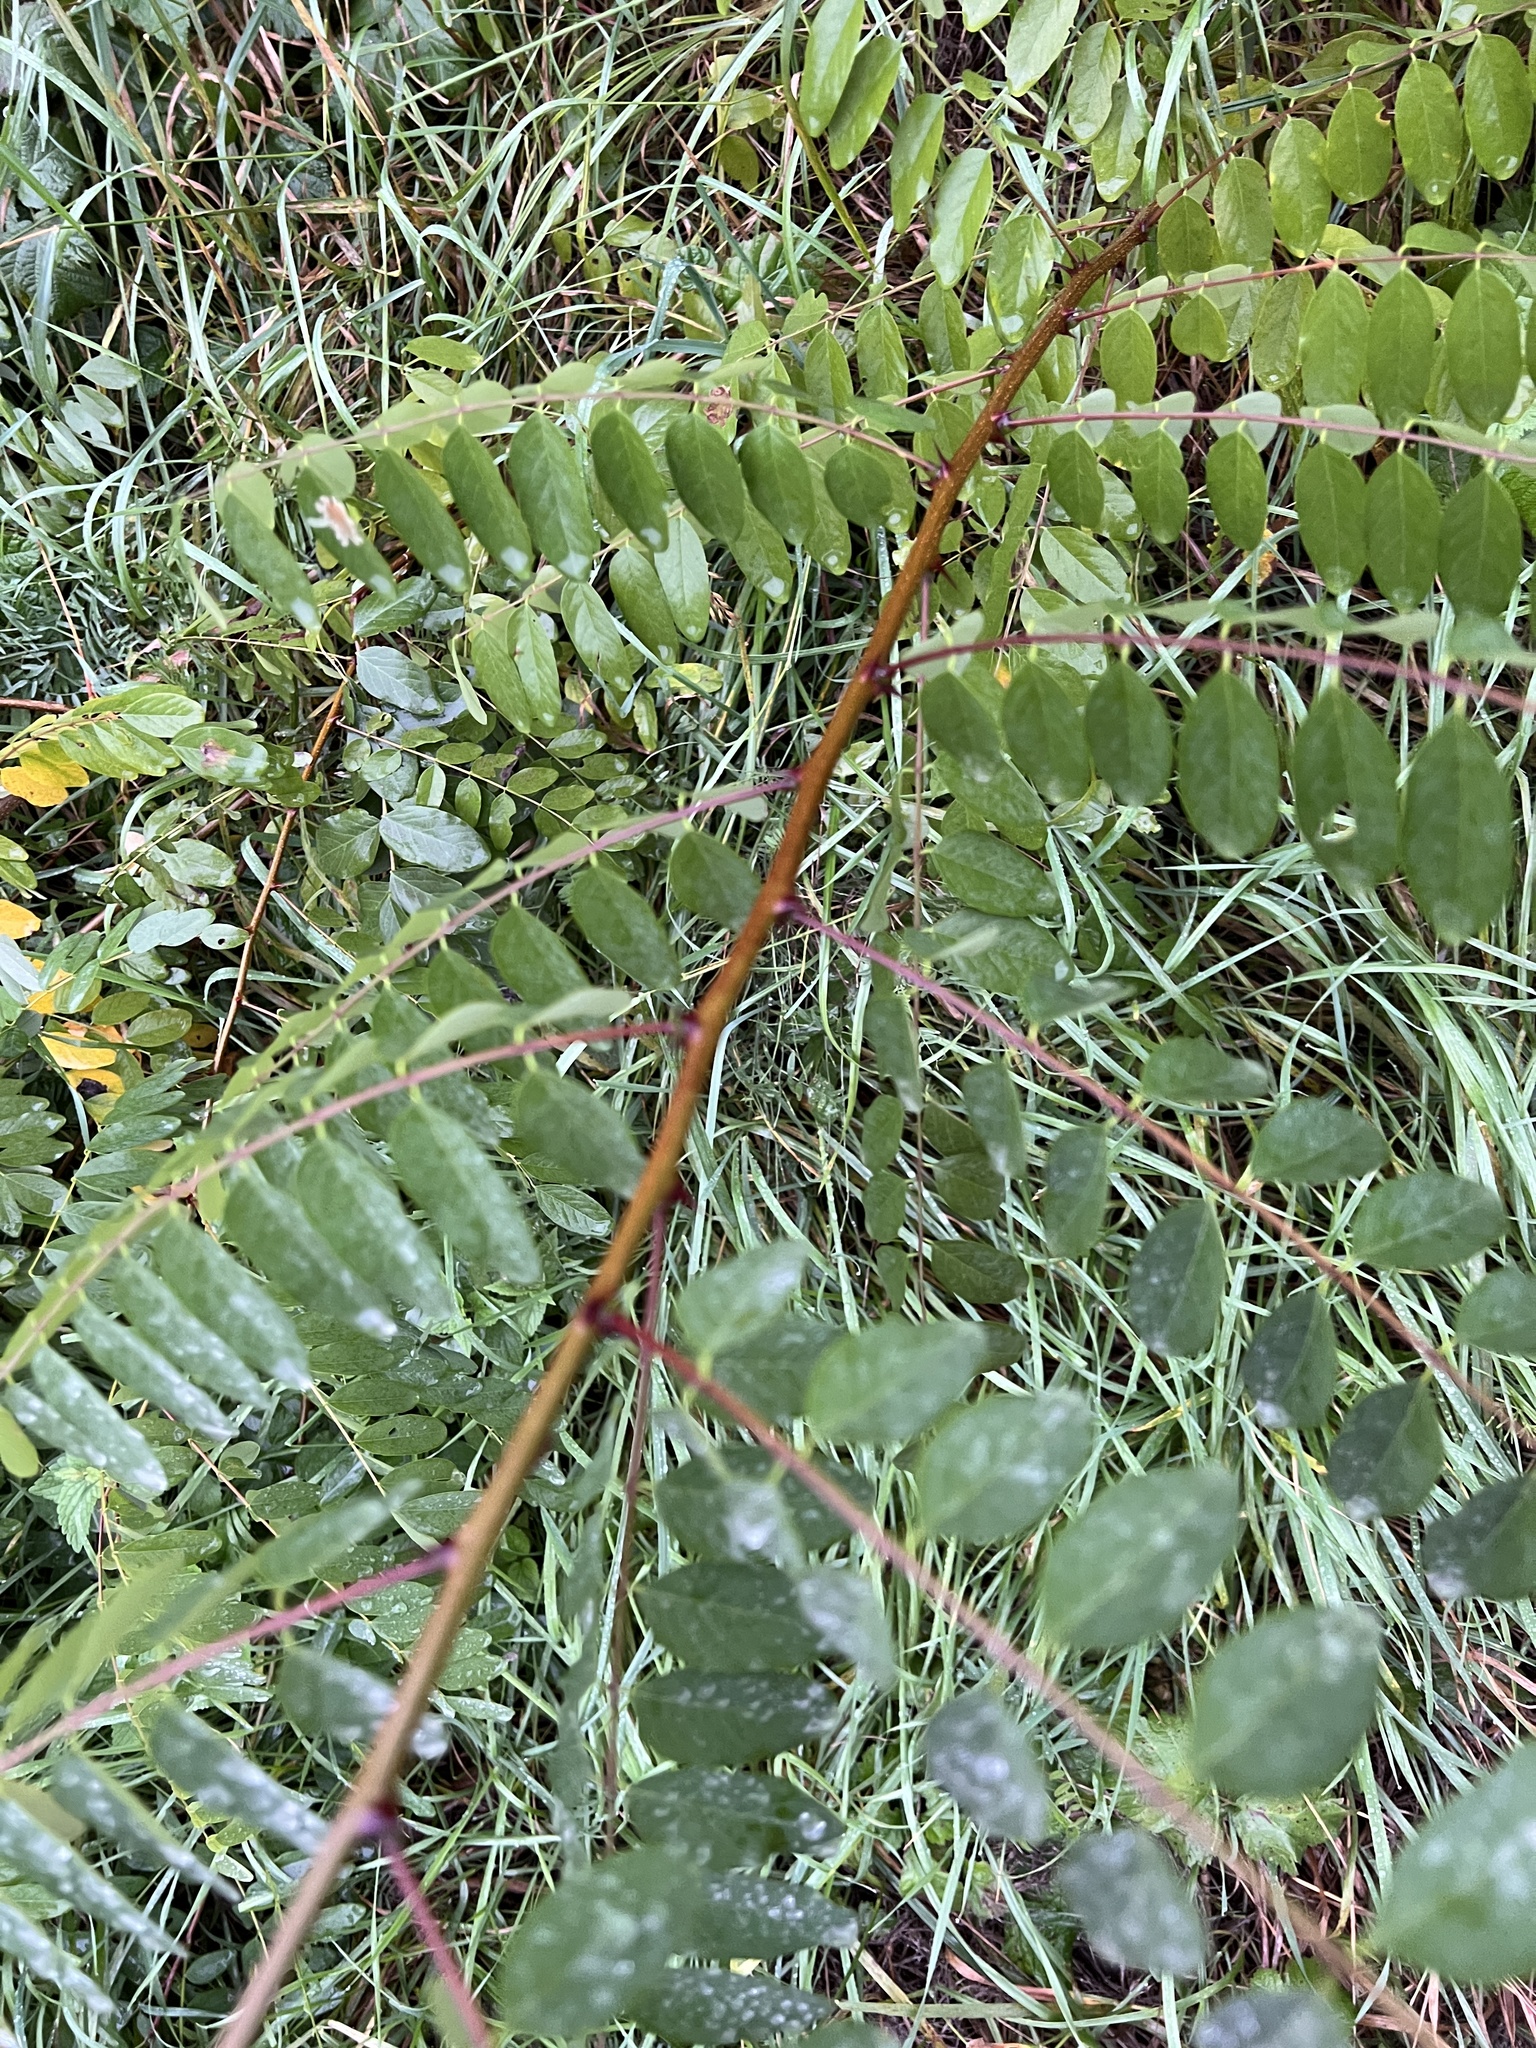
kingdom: Plantae
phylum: Tracheophyta
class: Magnoliopsida
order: Fabales
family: Fabaceae
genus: Robinia
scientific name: Robinia pseudoacacia
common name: Black locust
